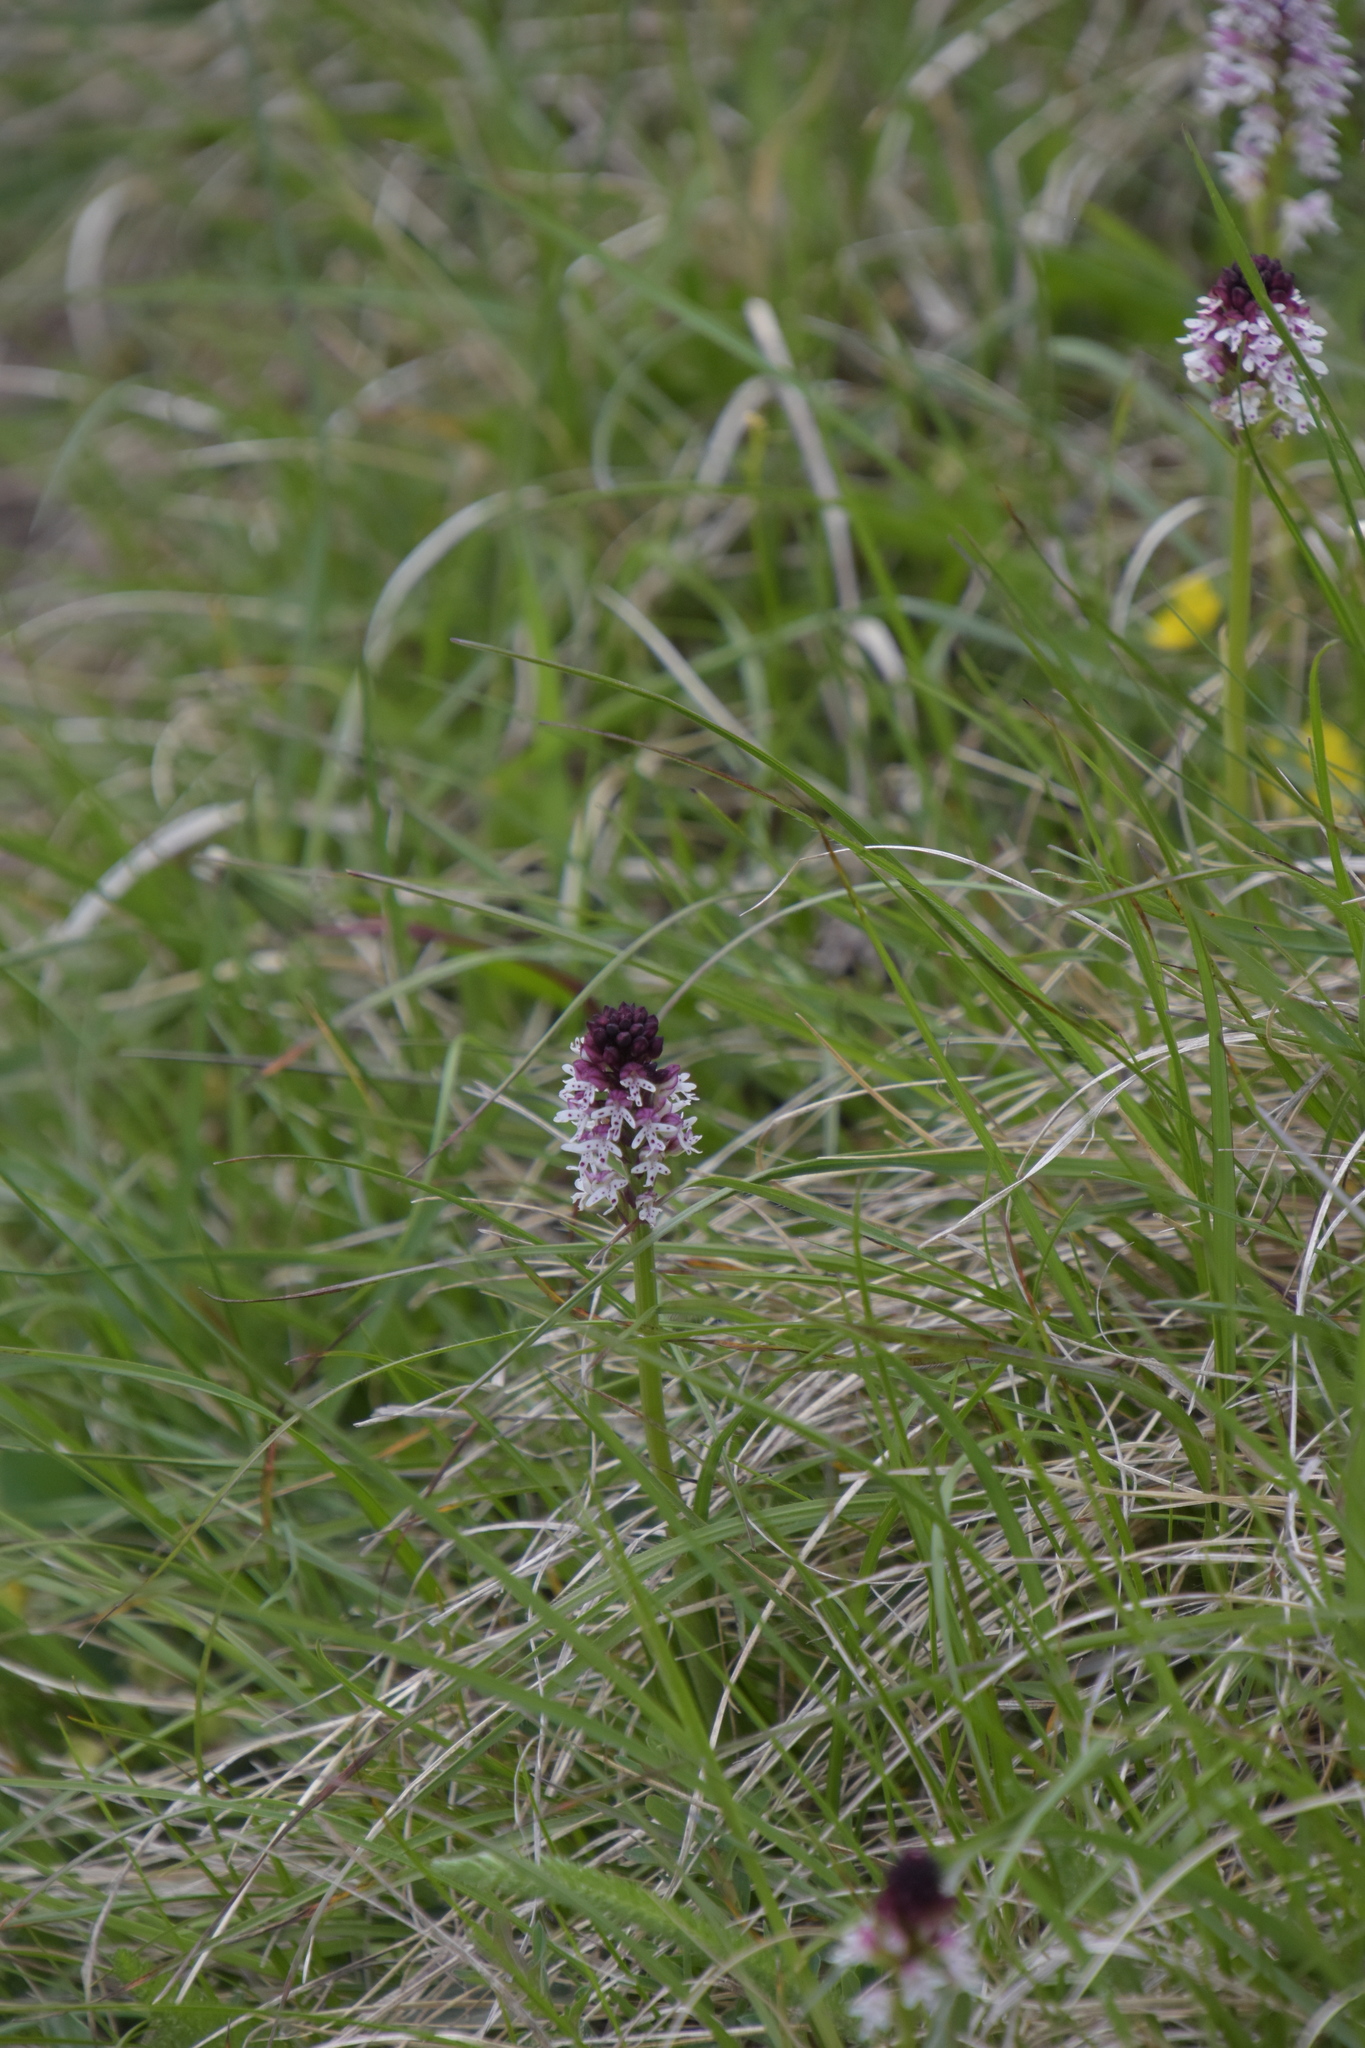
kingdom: Plantae
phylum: Tracheophyta
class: Liliopsida
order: Asparagales
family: Orchidaceae
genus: Neotinea
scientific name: Neotinea ustulata
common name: Burnt orchid
